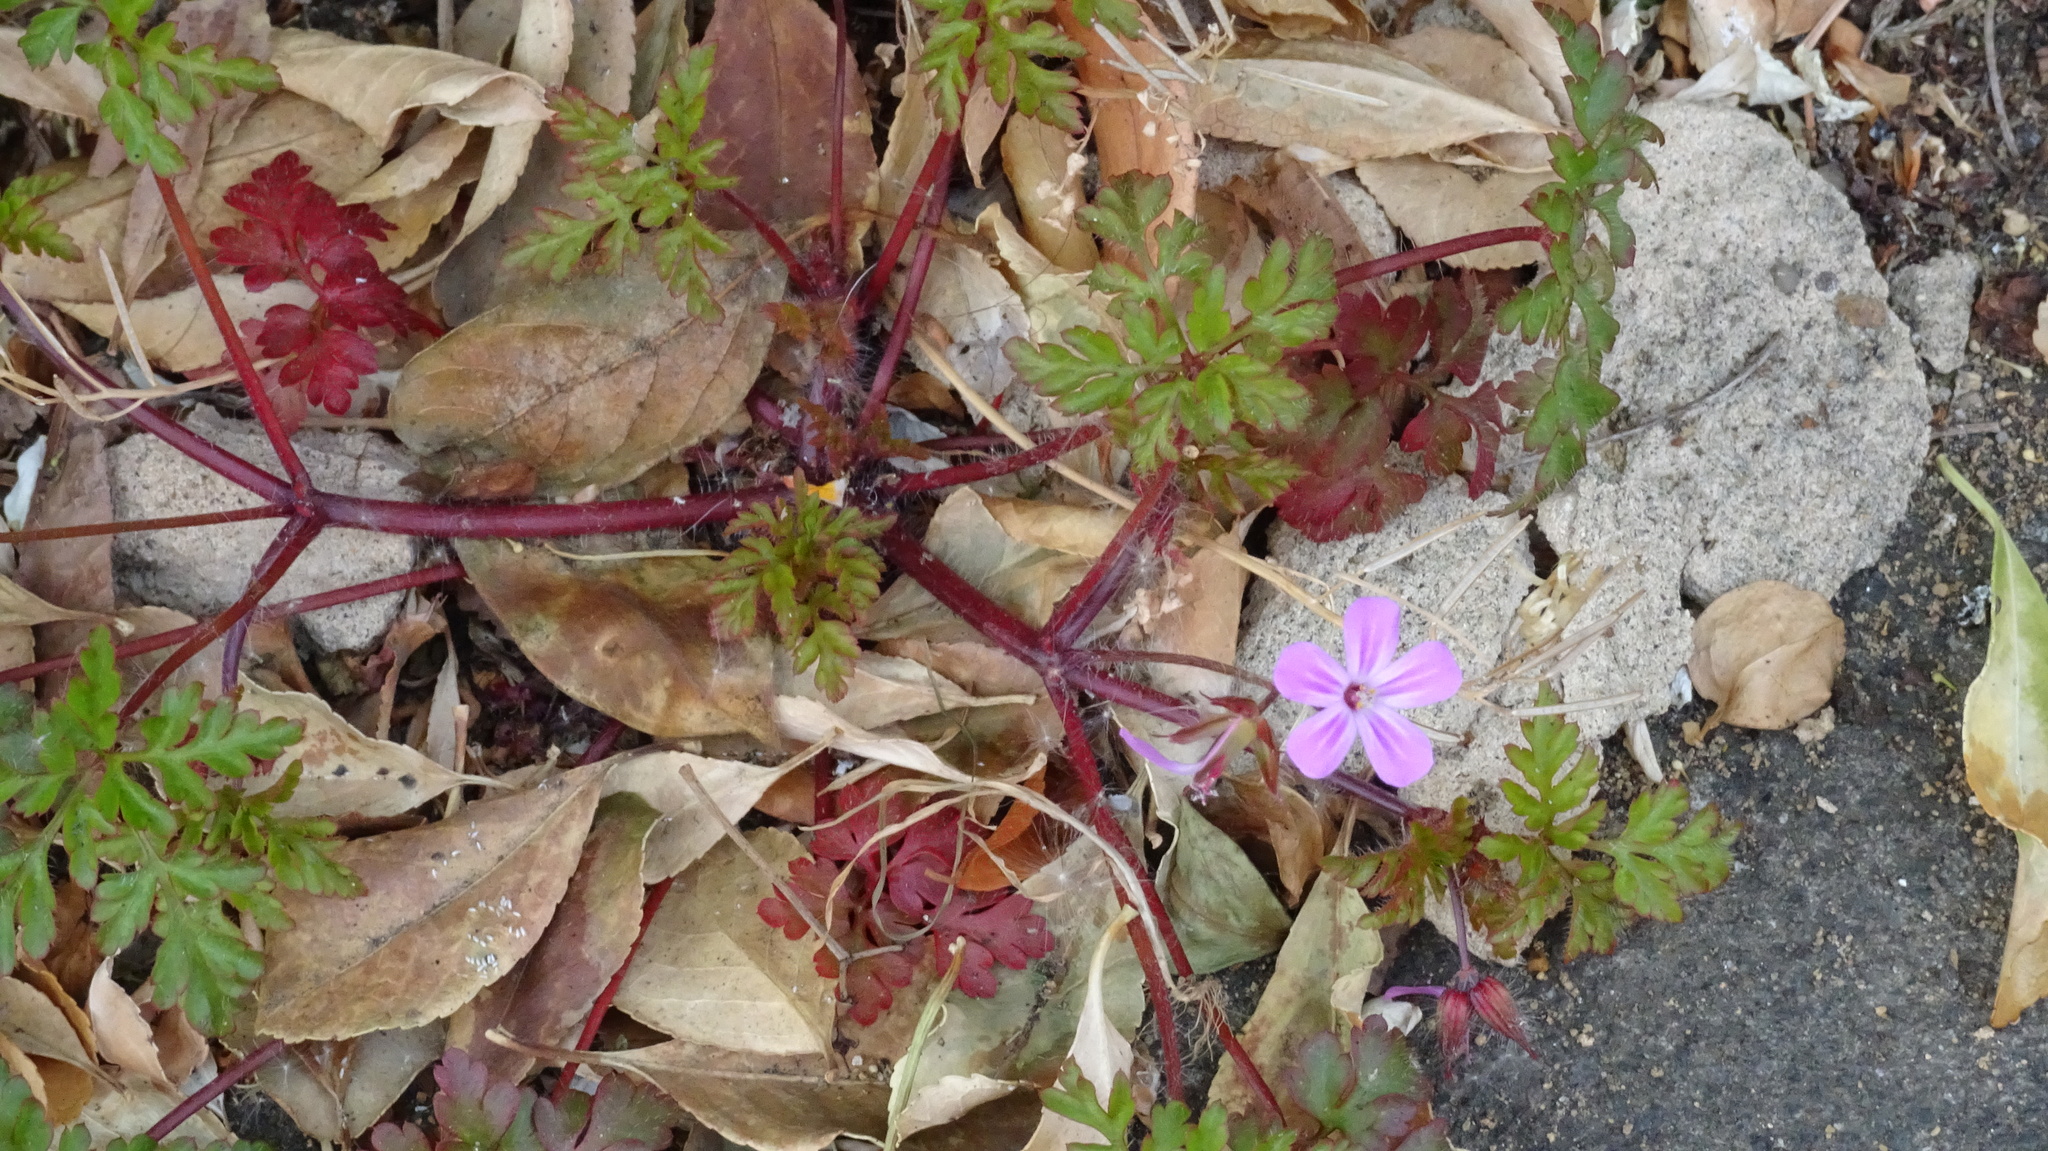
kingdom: Plantae
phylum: Tracheophyta
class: Magnoliopsida
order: Geraniales
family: Geraniaceae
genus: Geranium
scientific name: Geranium robertianum
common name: Herb-robert
